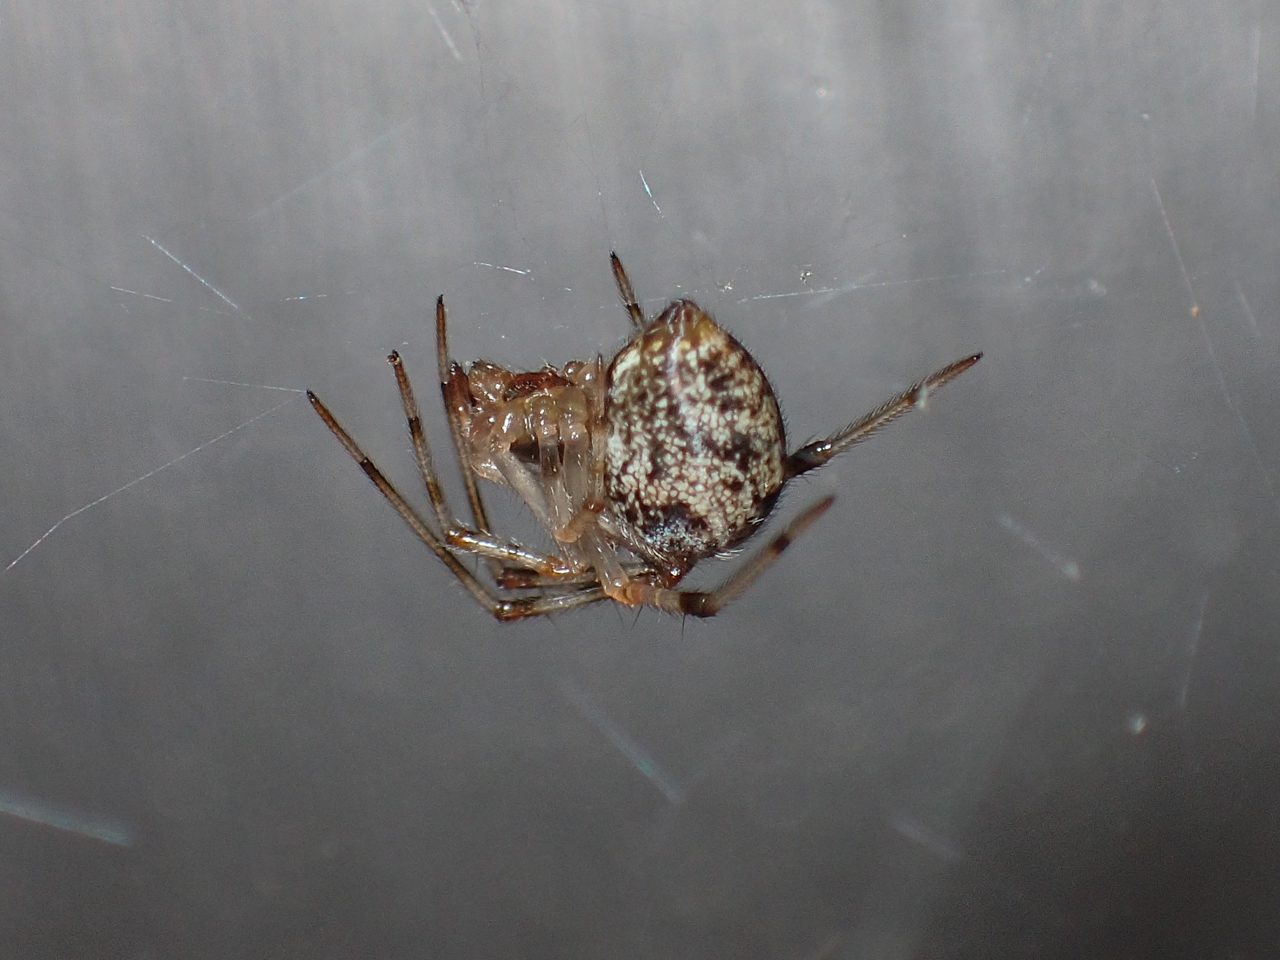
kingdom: Animalia
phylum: Arthropoda
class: Arachnida
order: Araneae
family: Theridiidae
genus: Parasteatoda
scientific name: Parasteatoda tepidariorum
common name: Common house spider
